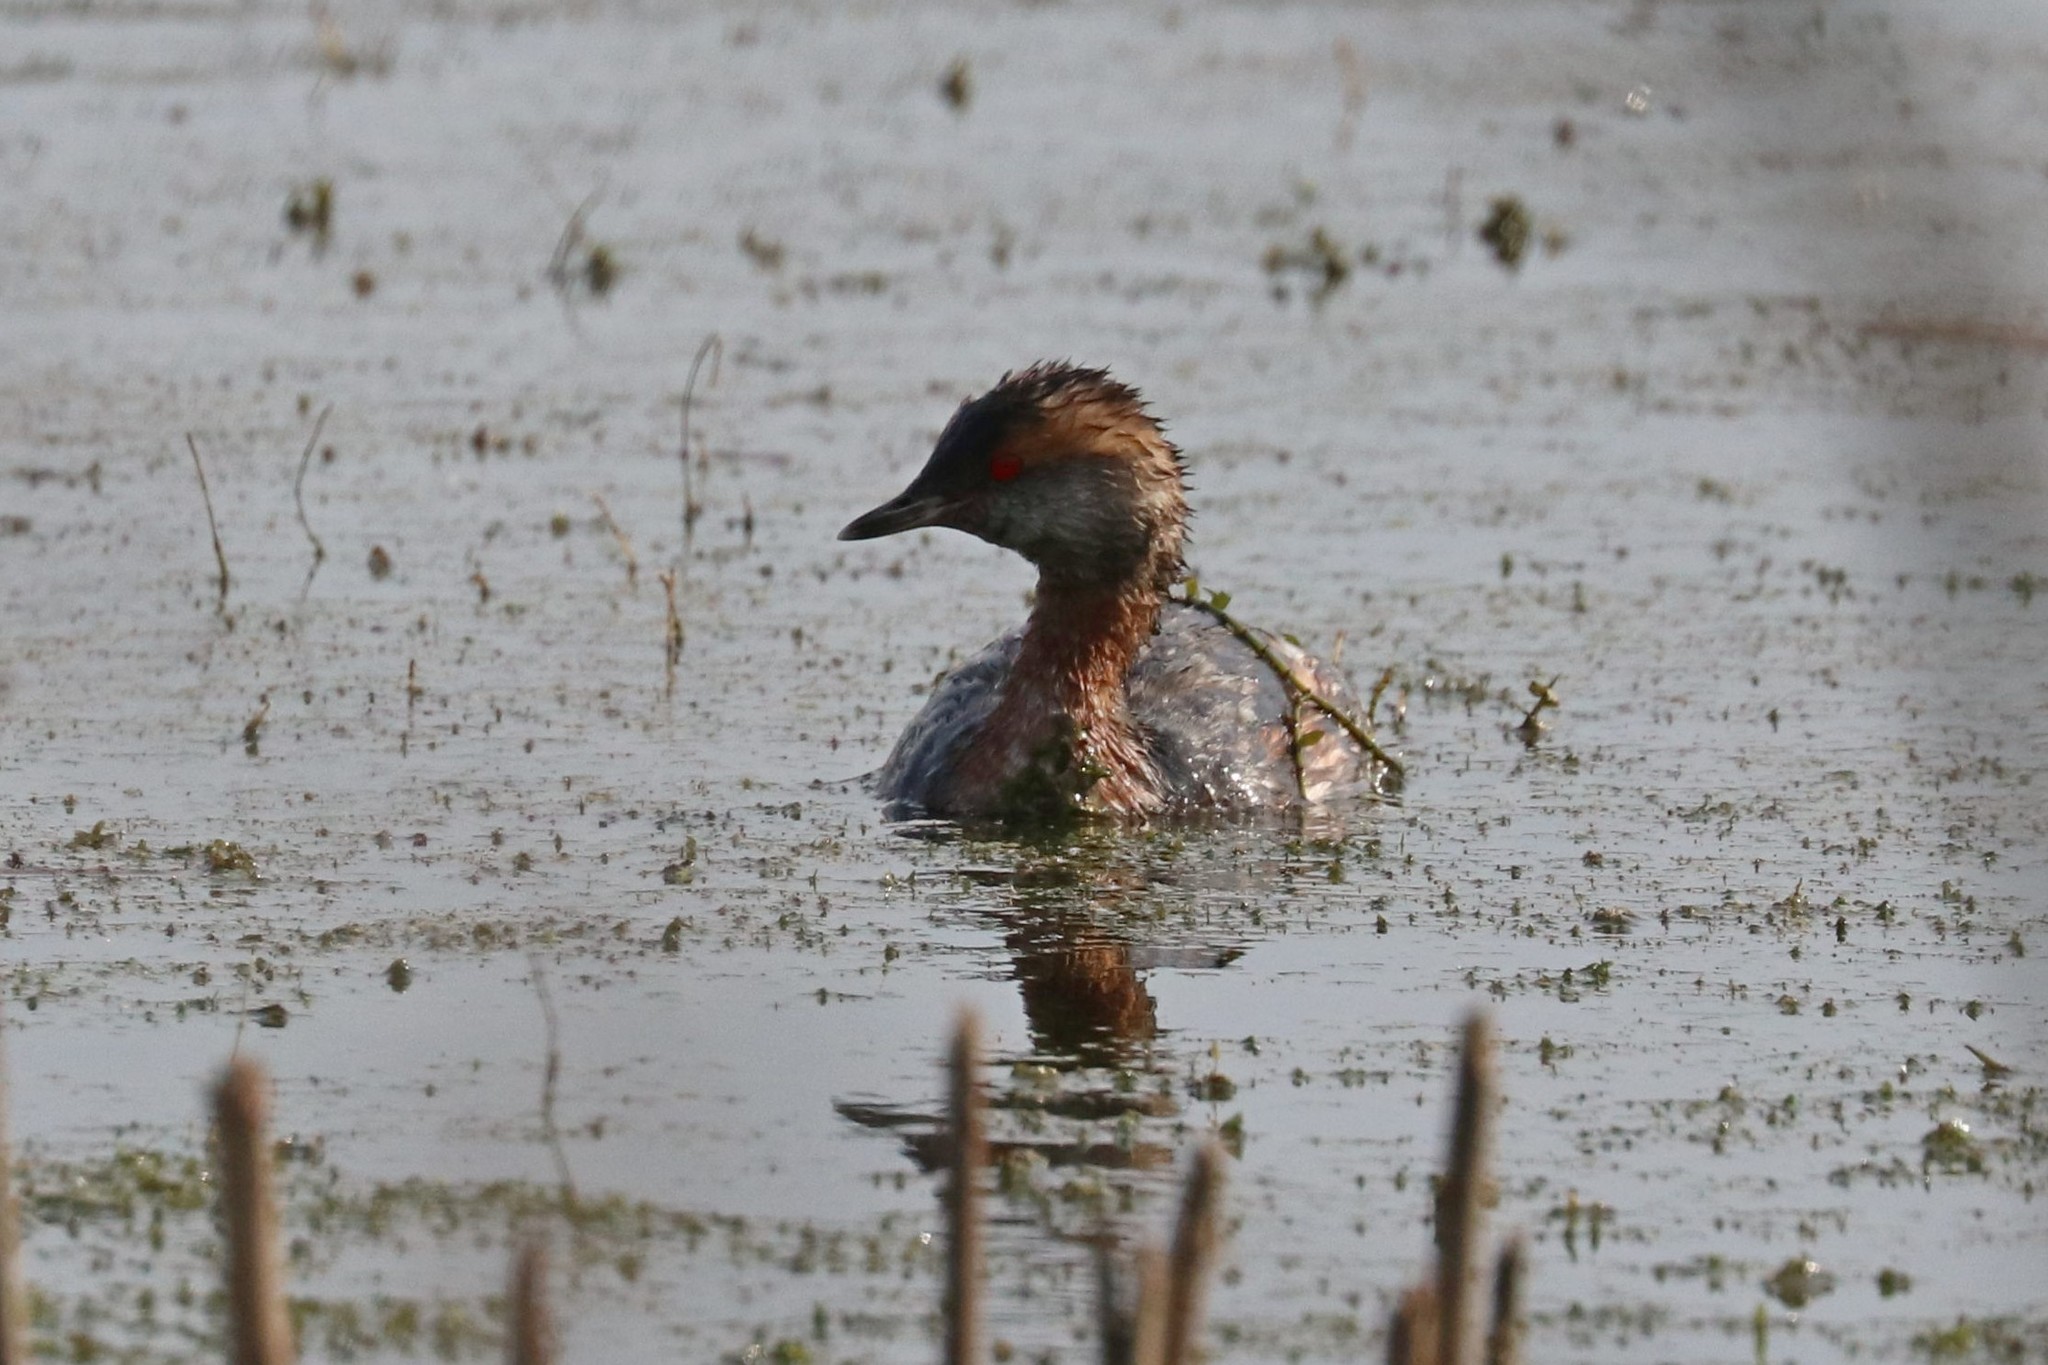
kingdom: Animalia
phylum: Chordata
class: Aves
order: Podicipediformes
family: Podicipedidae
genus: Podiceps
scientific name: Podiceps auritus
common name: Horned grebe
